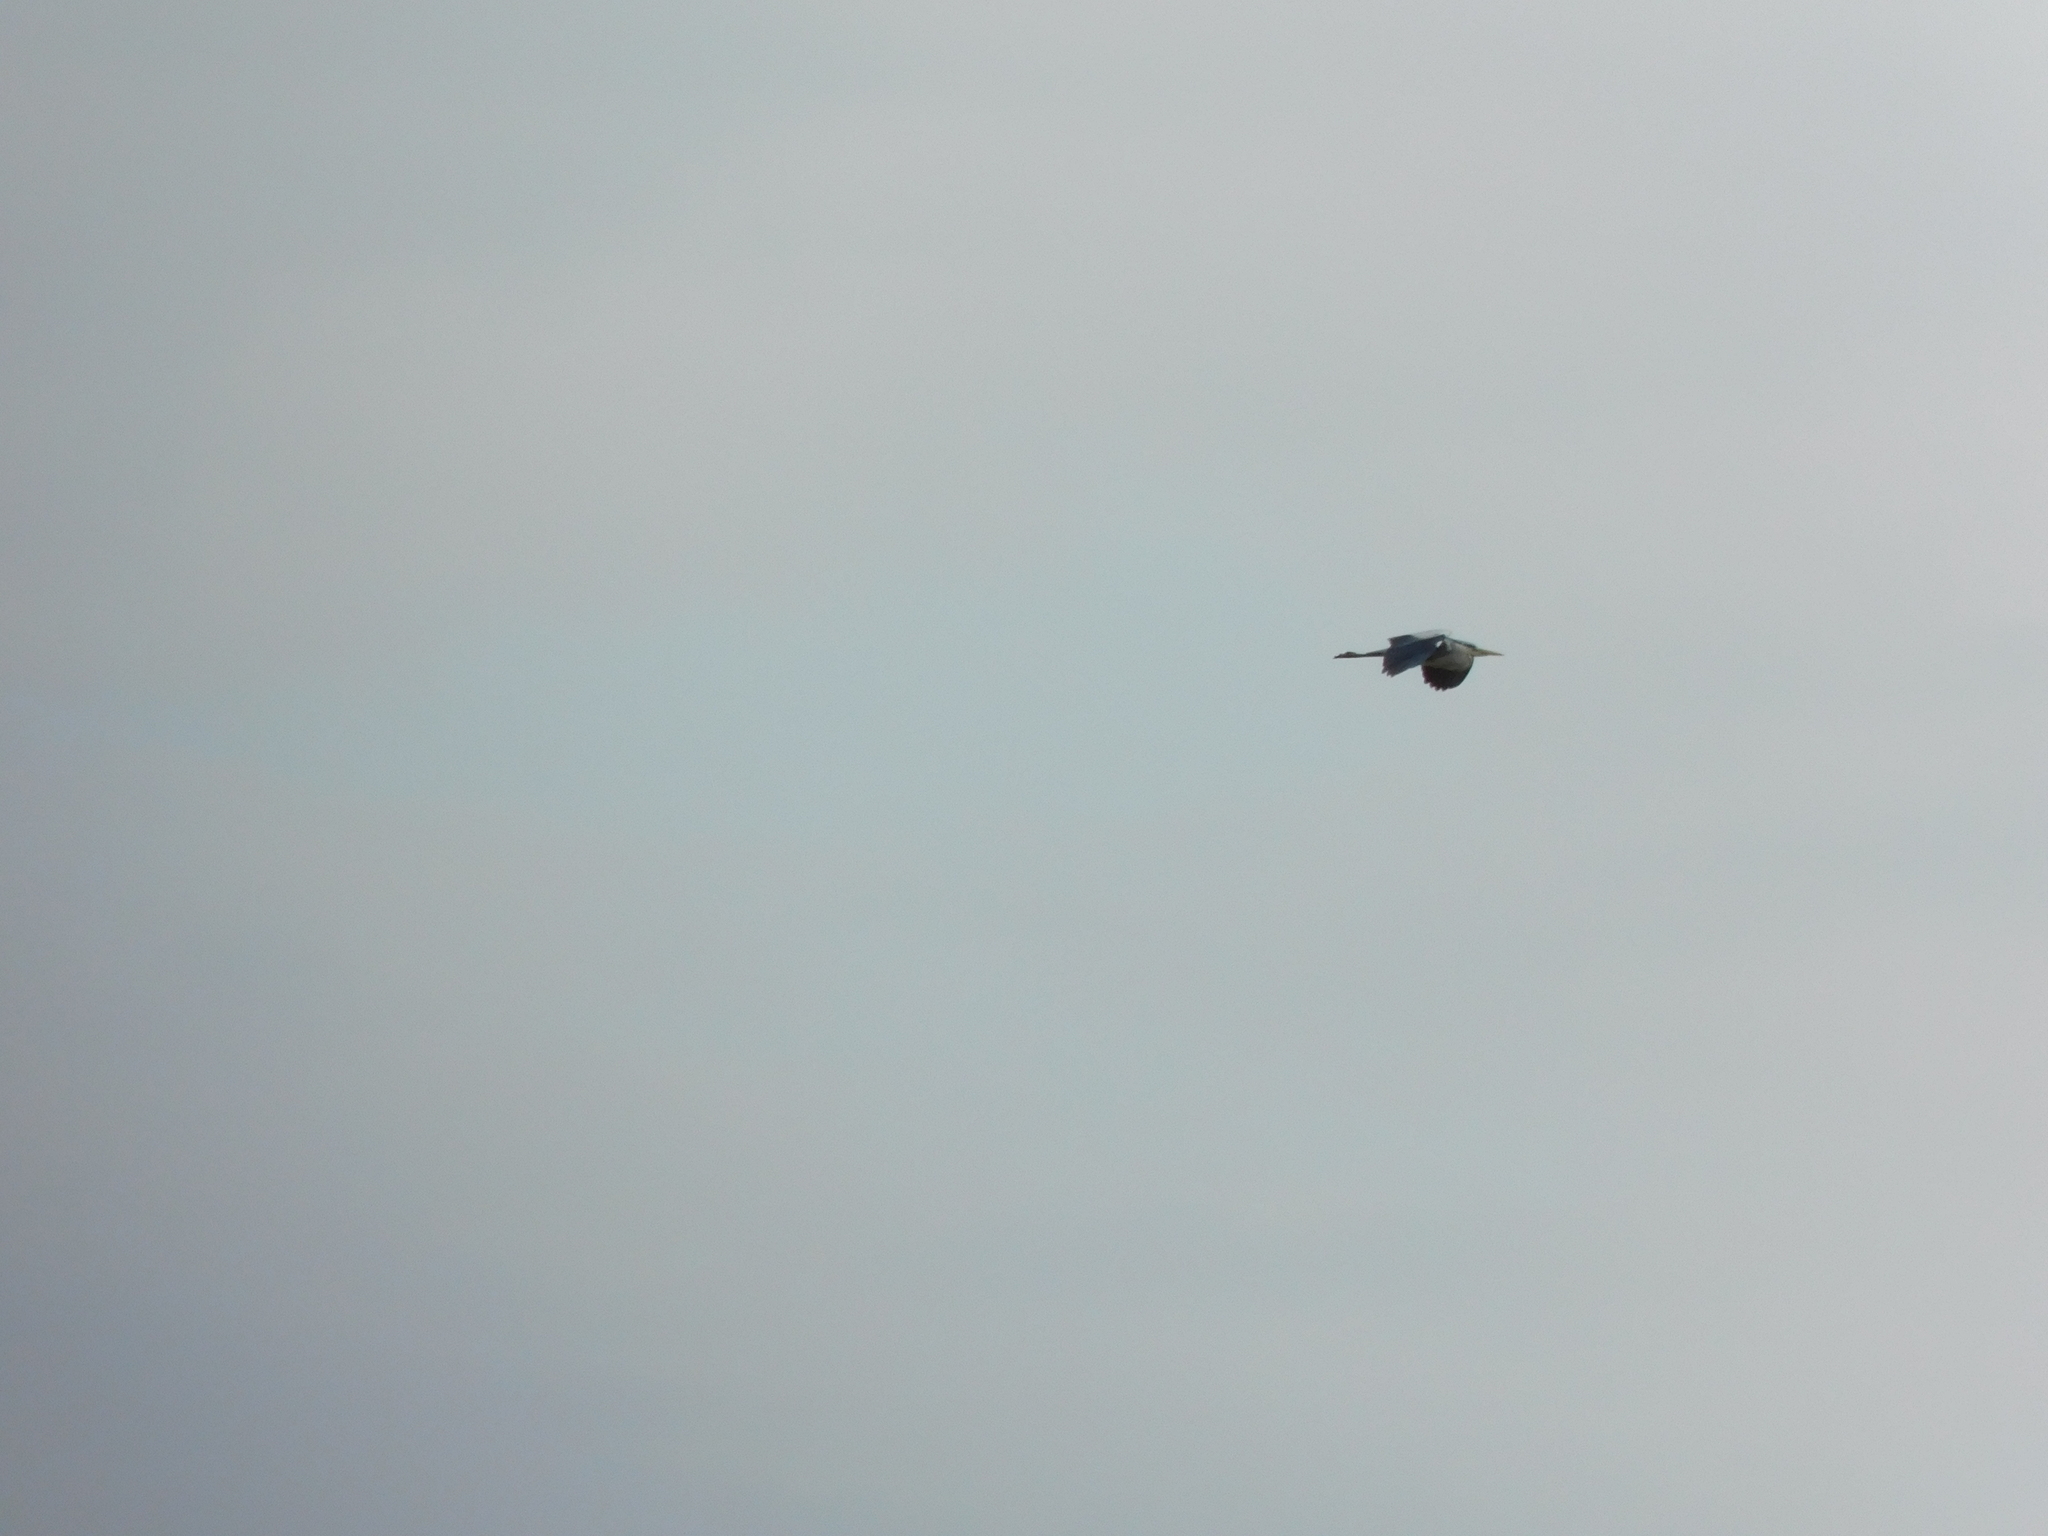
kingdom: Animalia
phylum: Chordata
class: Aves
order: Pelecaniformes
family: Ardeidae
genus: Ardea
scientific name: Ardea cinerea
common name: Grey heron
